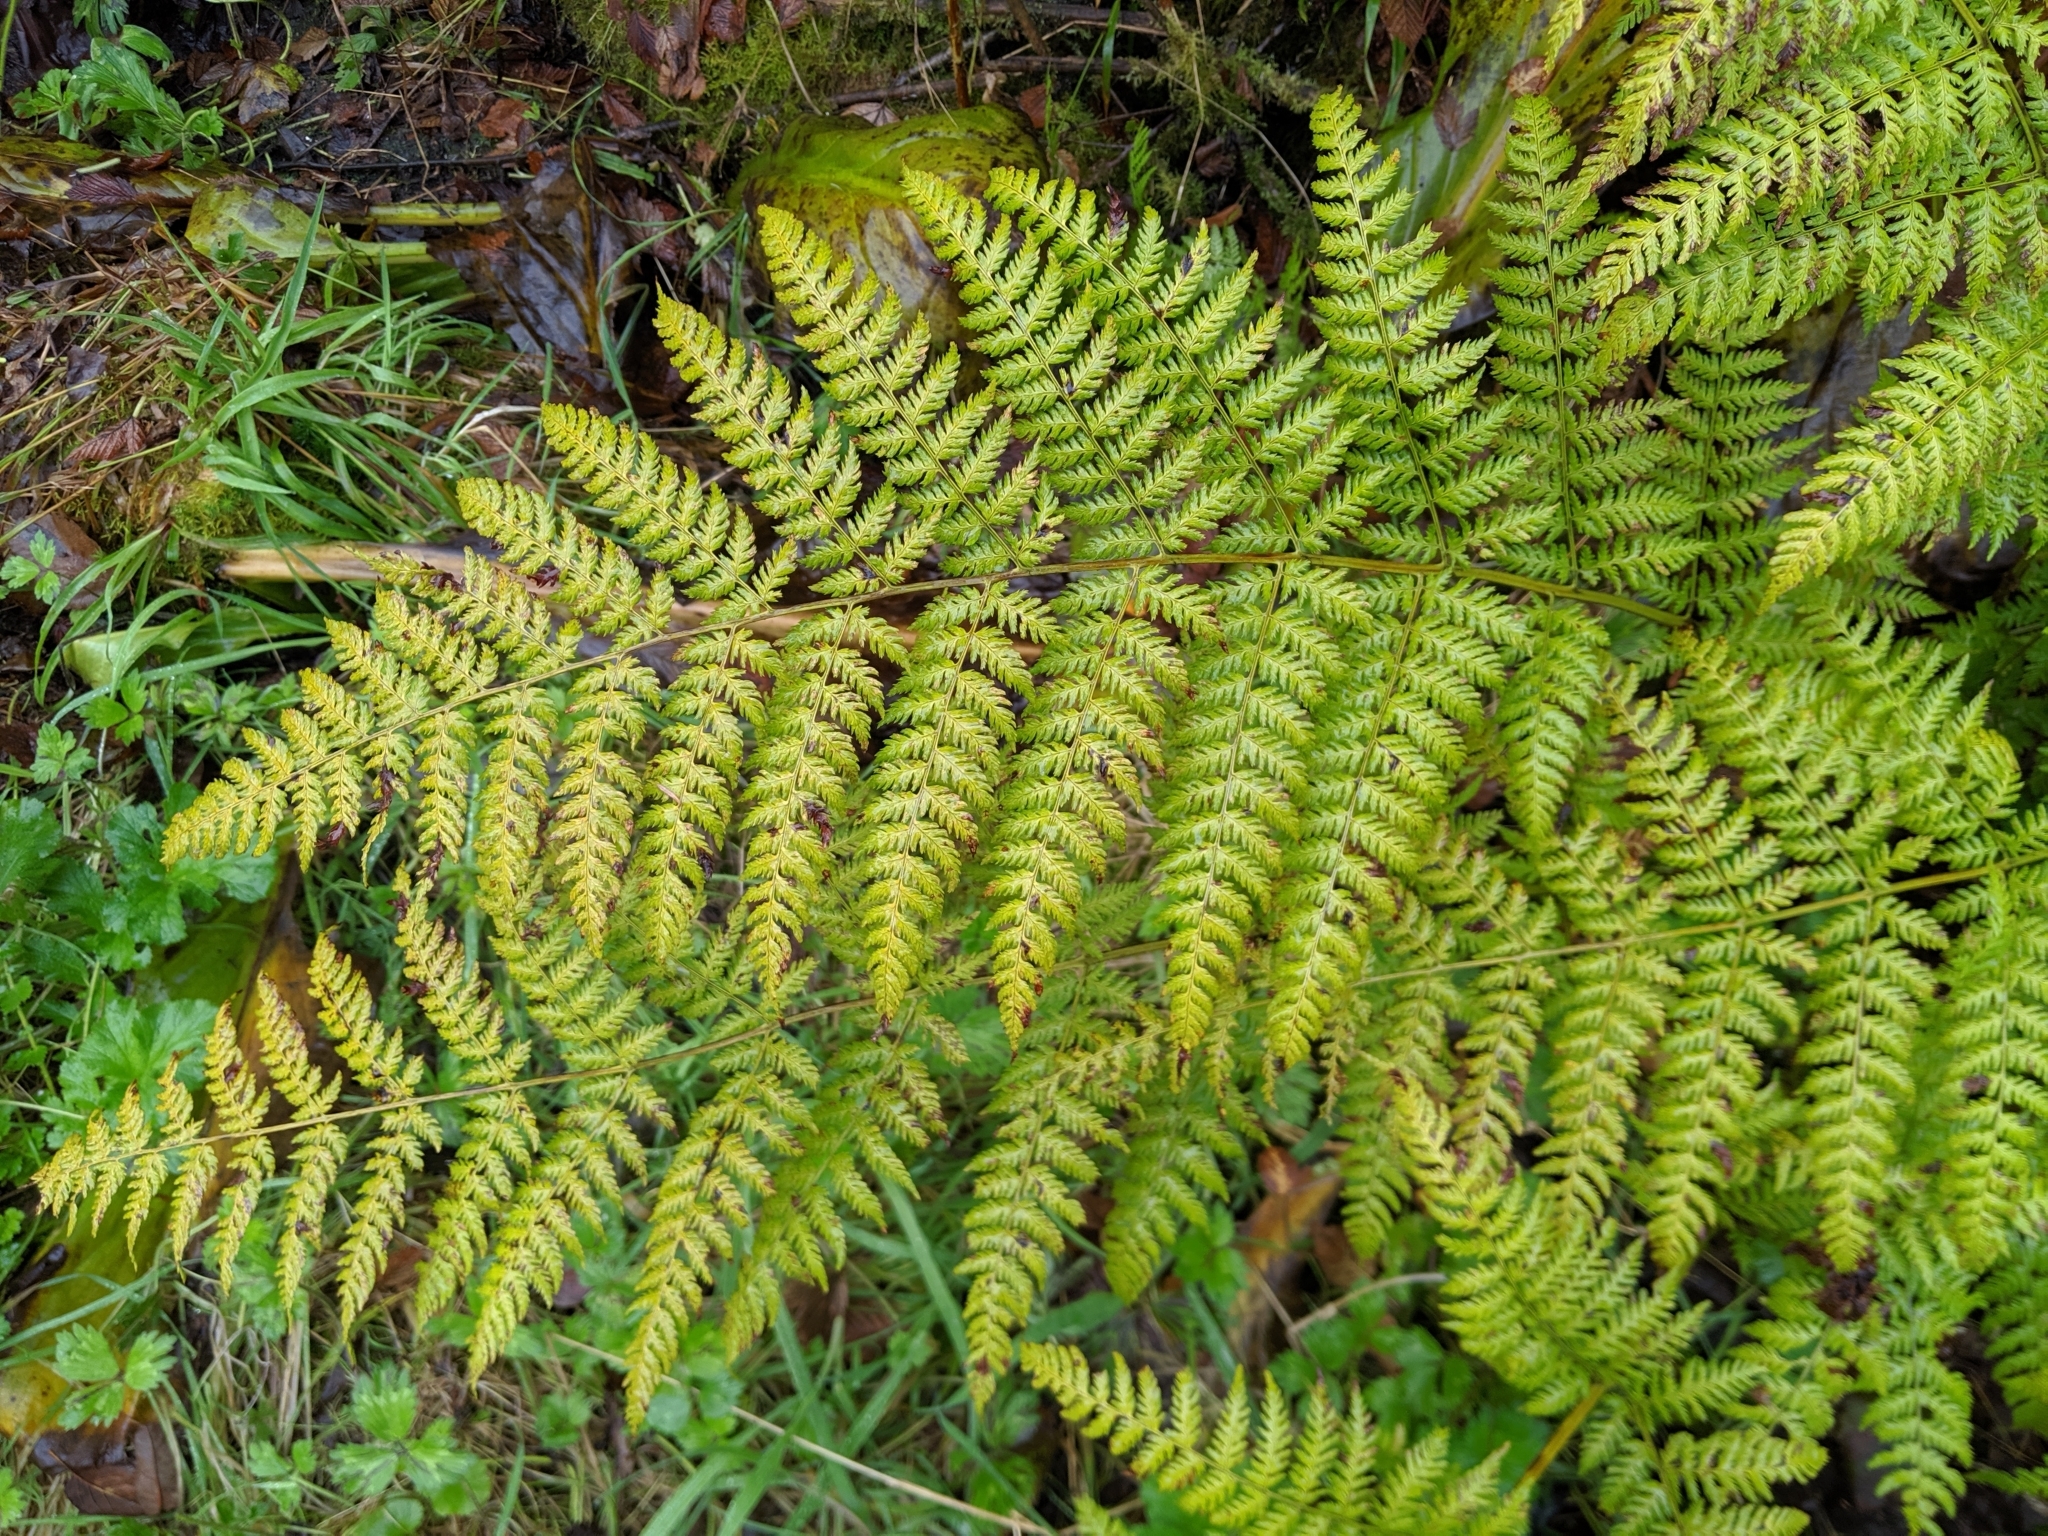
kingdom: Plantae
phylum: Tracheophyta
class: Polypodiopsida
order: Polypodiales
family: Dryopteridaceae
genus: Dryopteris
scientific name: Dryopteris expansa
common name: Northern buckler fern
